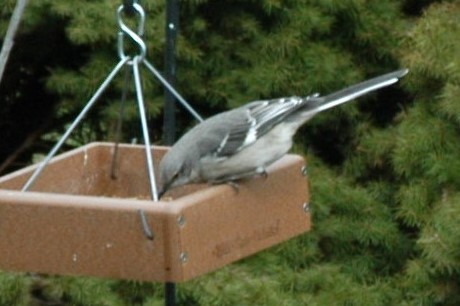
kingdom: Animalia
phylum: Chordata
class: Aves
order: Passeriformes
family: Mimidae
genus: Mimus
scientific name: Mimus polyglottos
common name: Northern mockingbird
